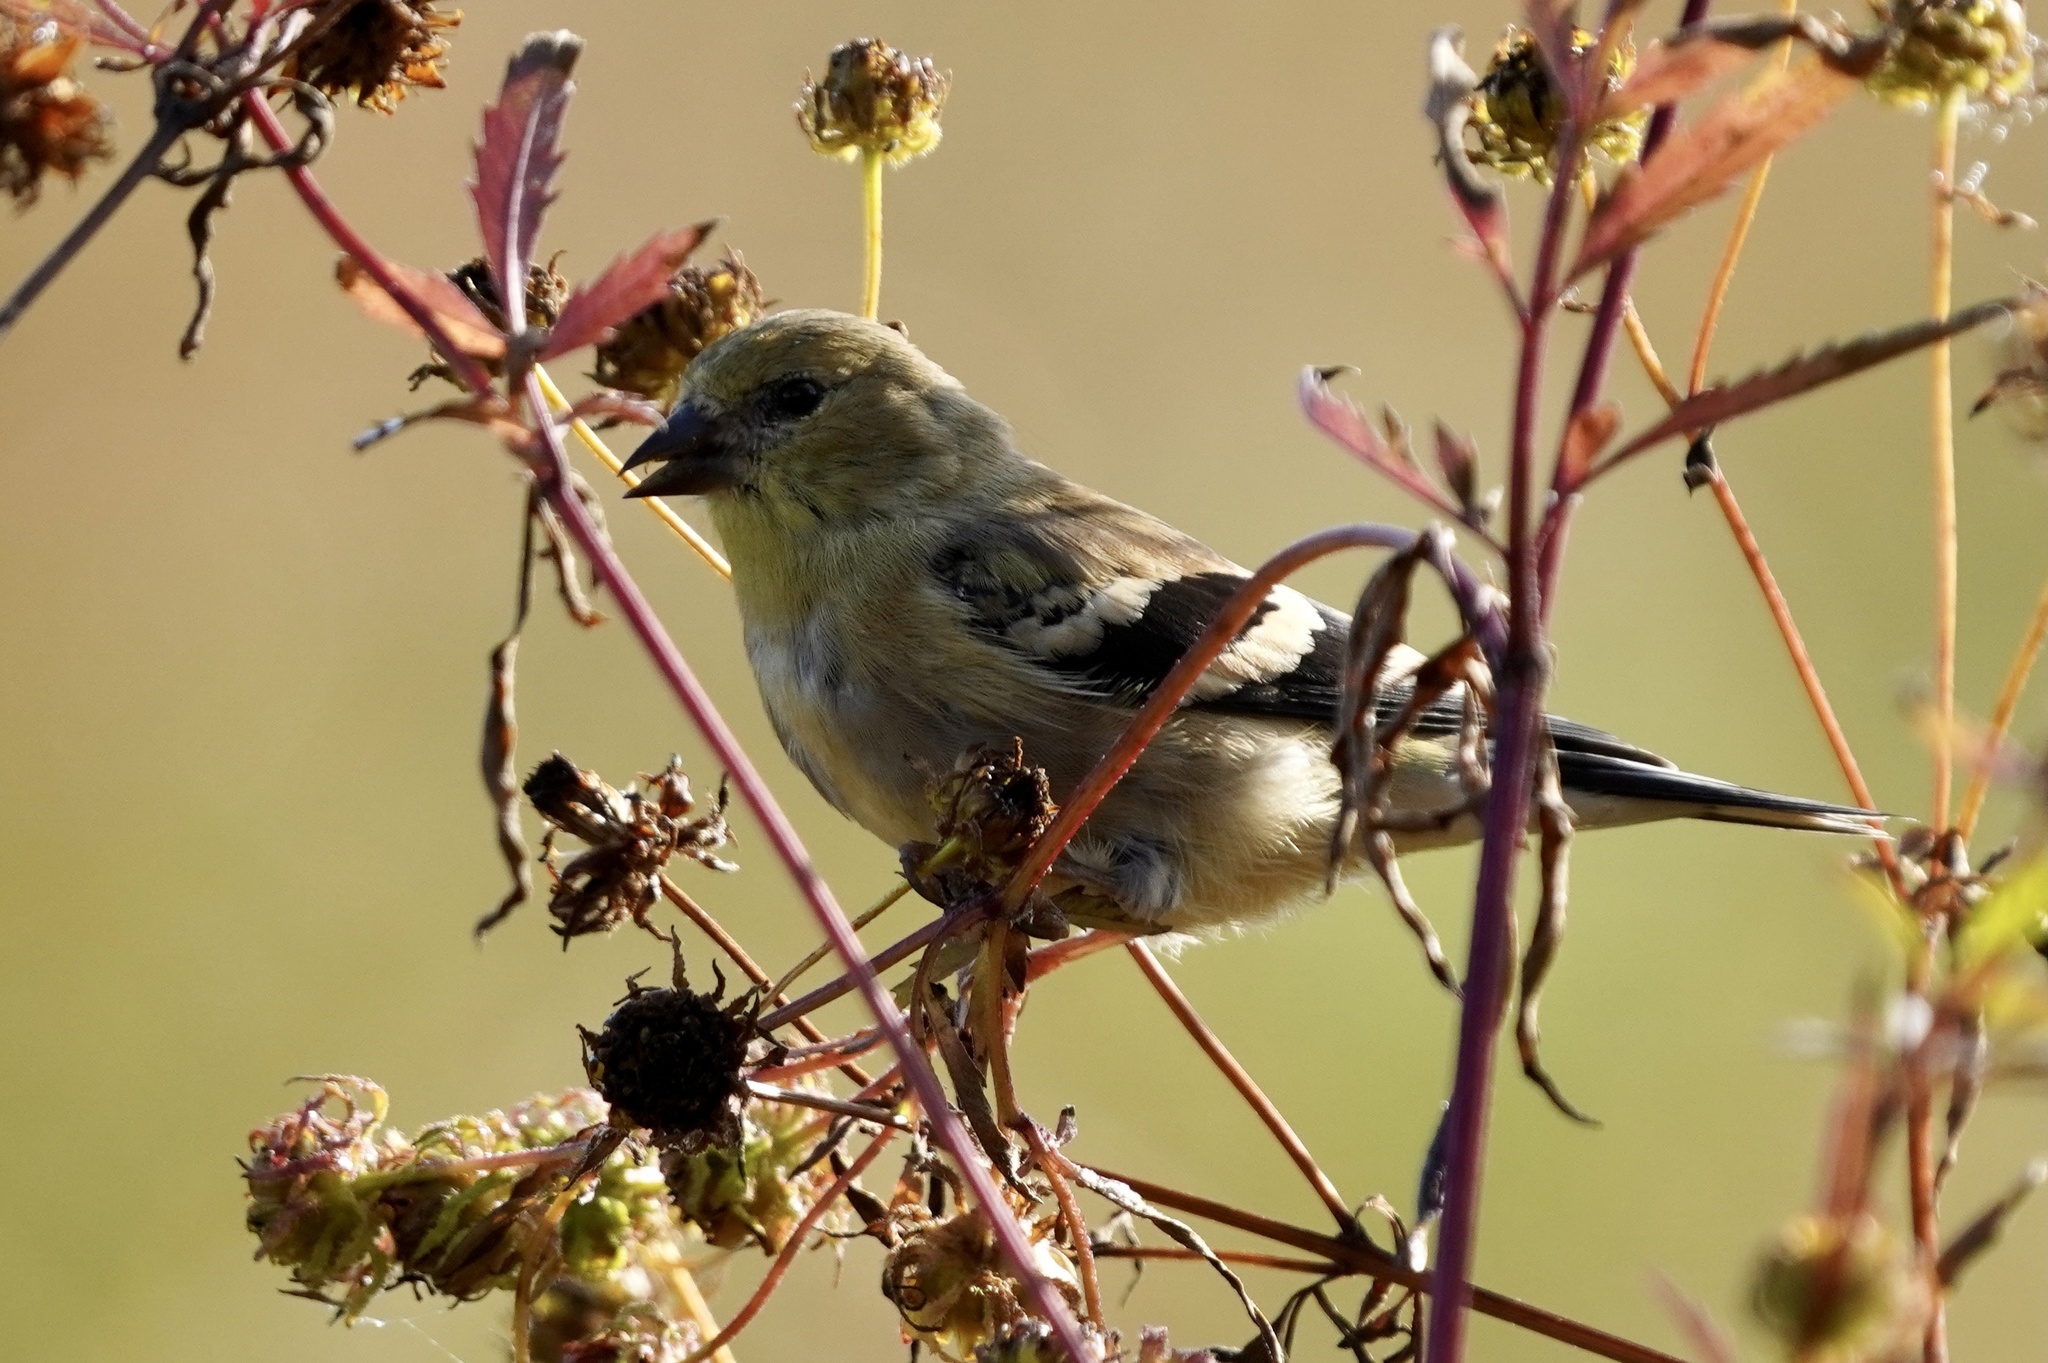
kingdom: Animalia
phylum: Chordata
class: Aves
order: Passeriformes
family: Fringillidae
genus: Spinus
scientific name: Spinus tristis
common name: American goldfinch
